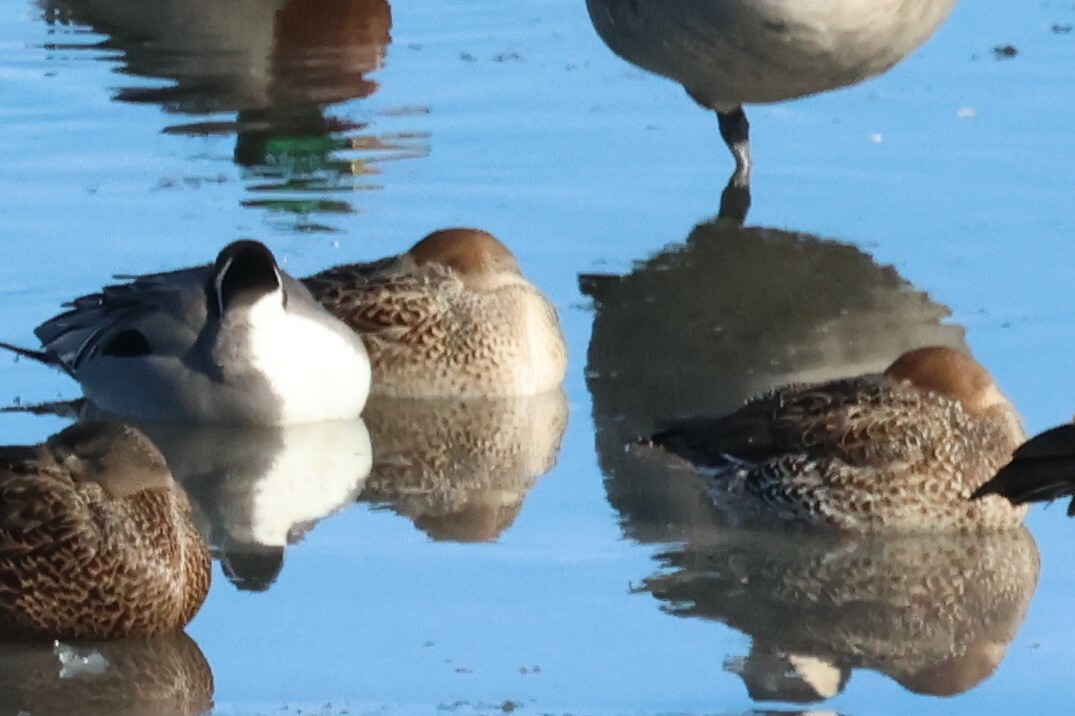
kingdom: Animalia
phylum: Chordata
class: Aves
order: Anseriformes
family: Anatidae
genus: Anas
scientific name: Anas acuta
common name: Northern pintail
